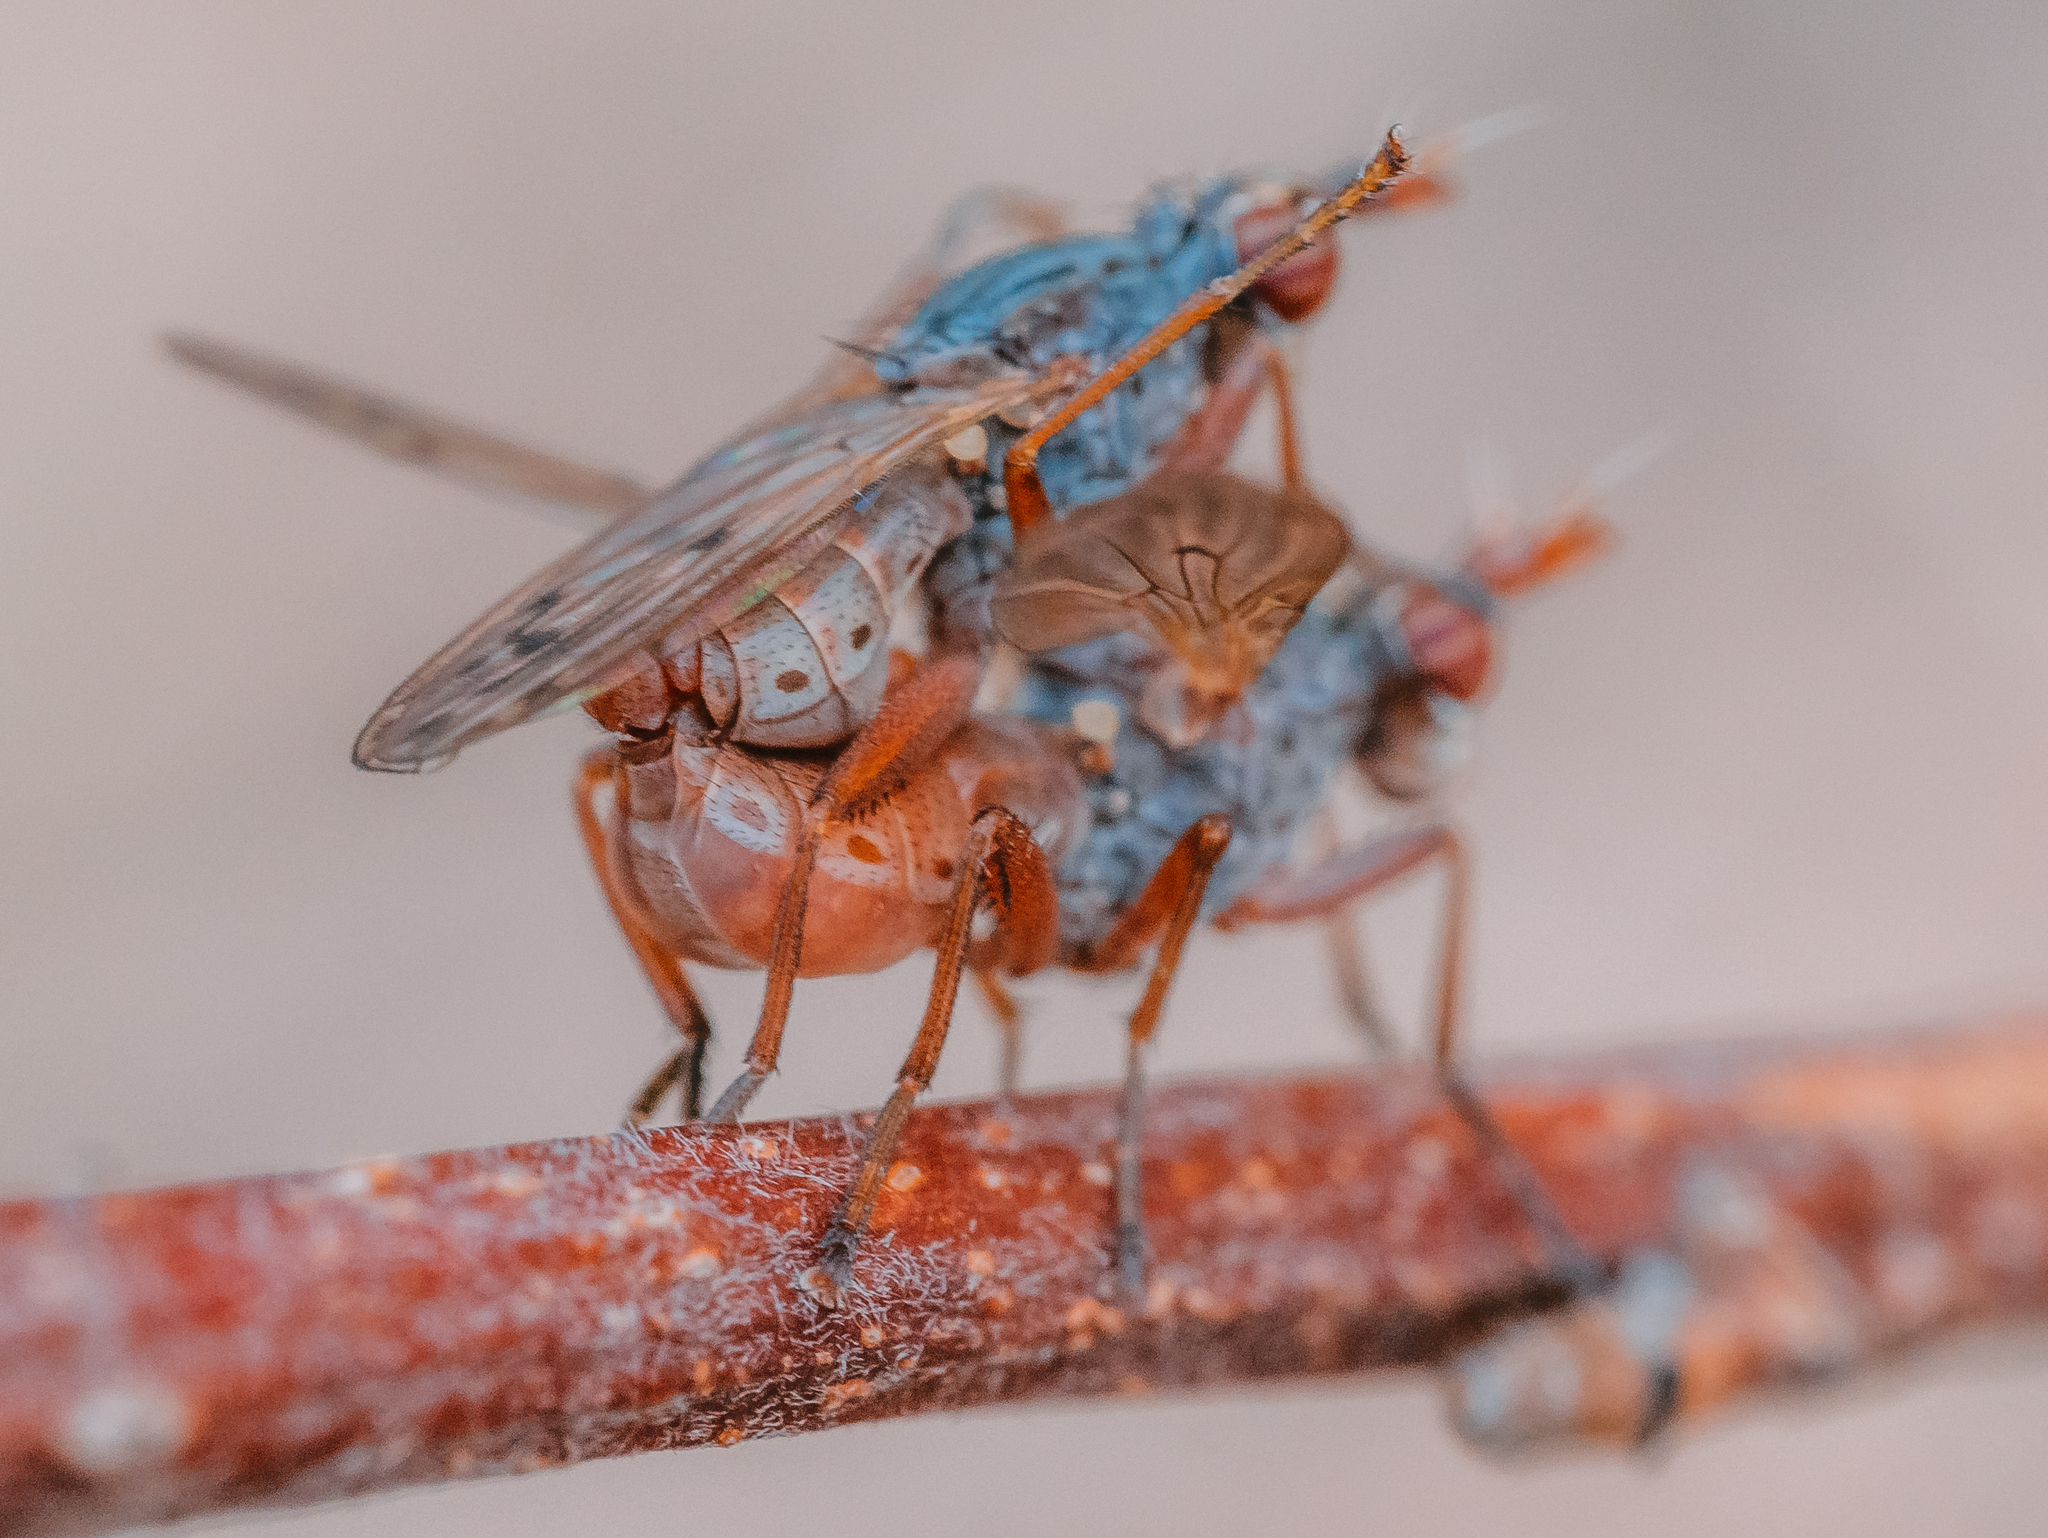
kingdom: Animalia
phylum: Arthropoda
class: Insecta
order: Diptera
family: Sciomyzidae
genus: Elgiva
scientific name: Elgiva cucularia
